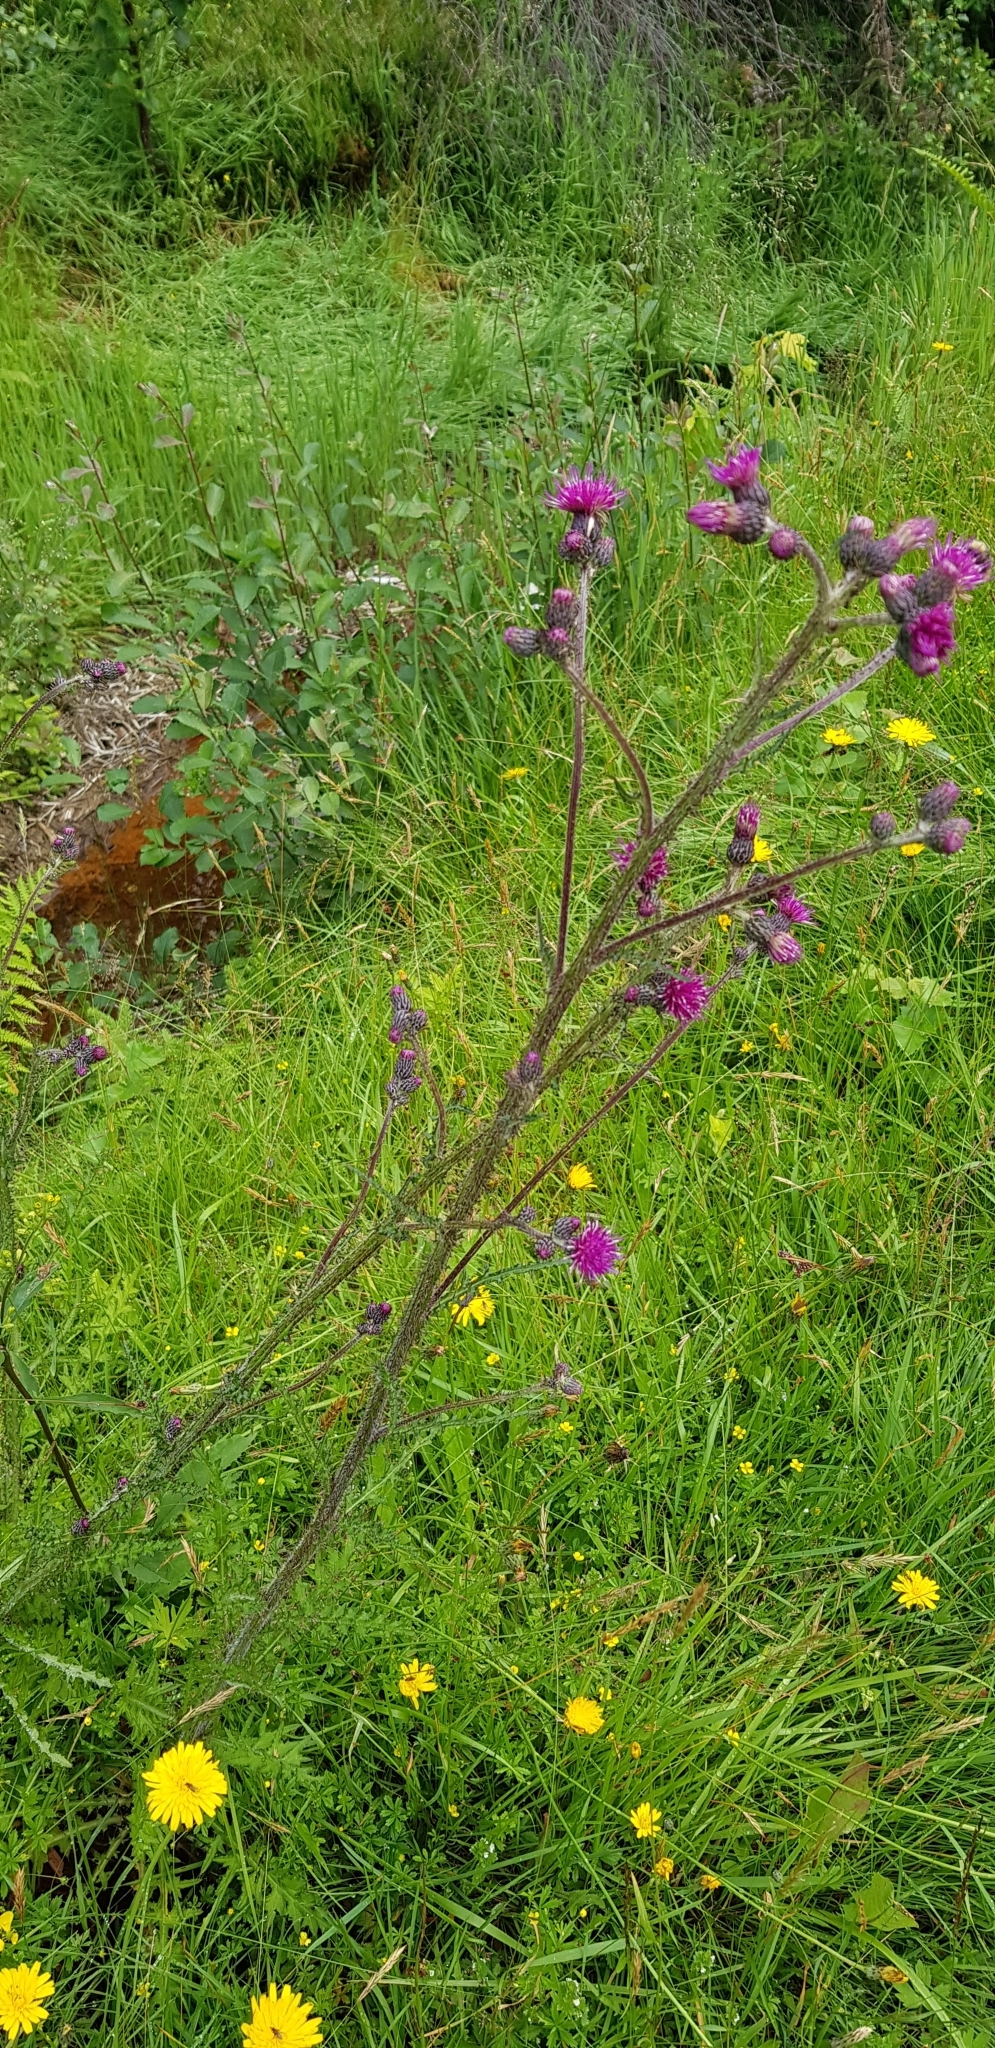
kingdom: Plantae
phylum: Tracheophyta
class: Magnoliopsida
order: Asterales
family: Asteraceae
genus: Cirsium
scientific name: Cirsium palustre
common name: Marsh thistle
